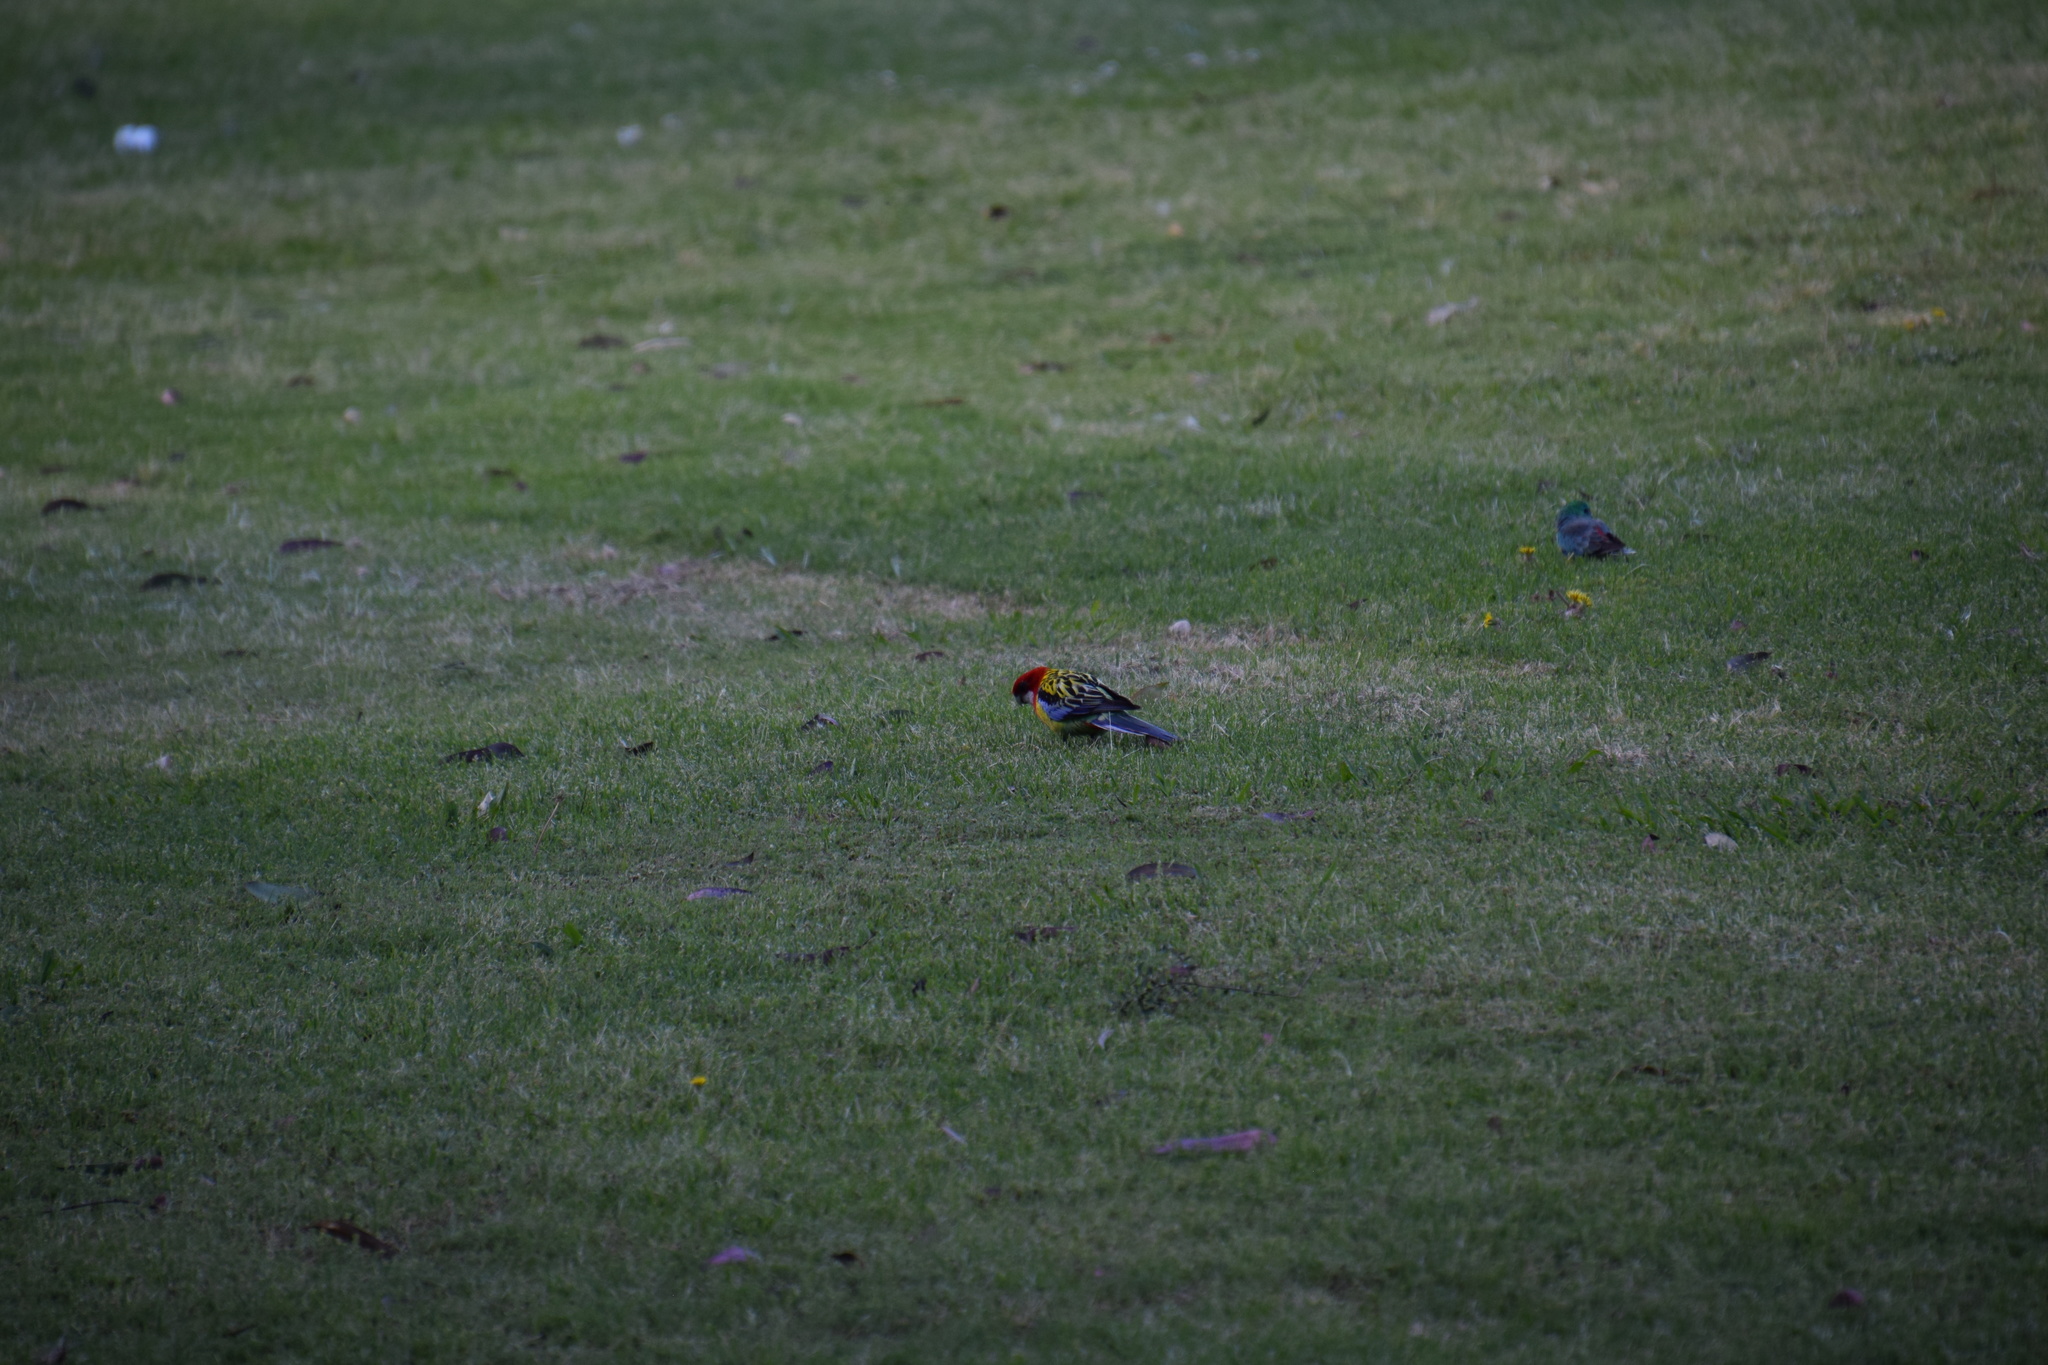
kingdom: Animalia
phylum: Chordata
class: Aves
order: Psittaciformes
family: Psittacidae
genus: Platycercus
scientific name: Platycercus eximius
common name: Eastern rosella
